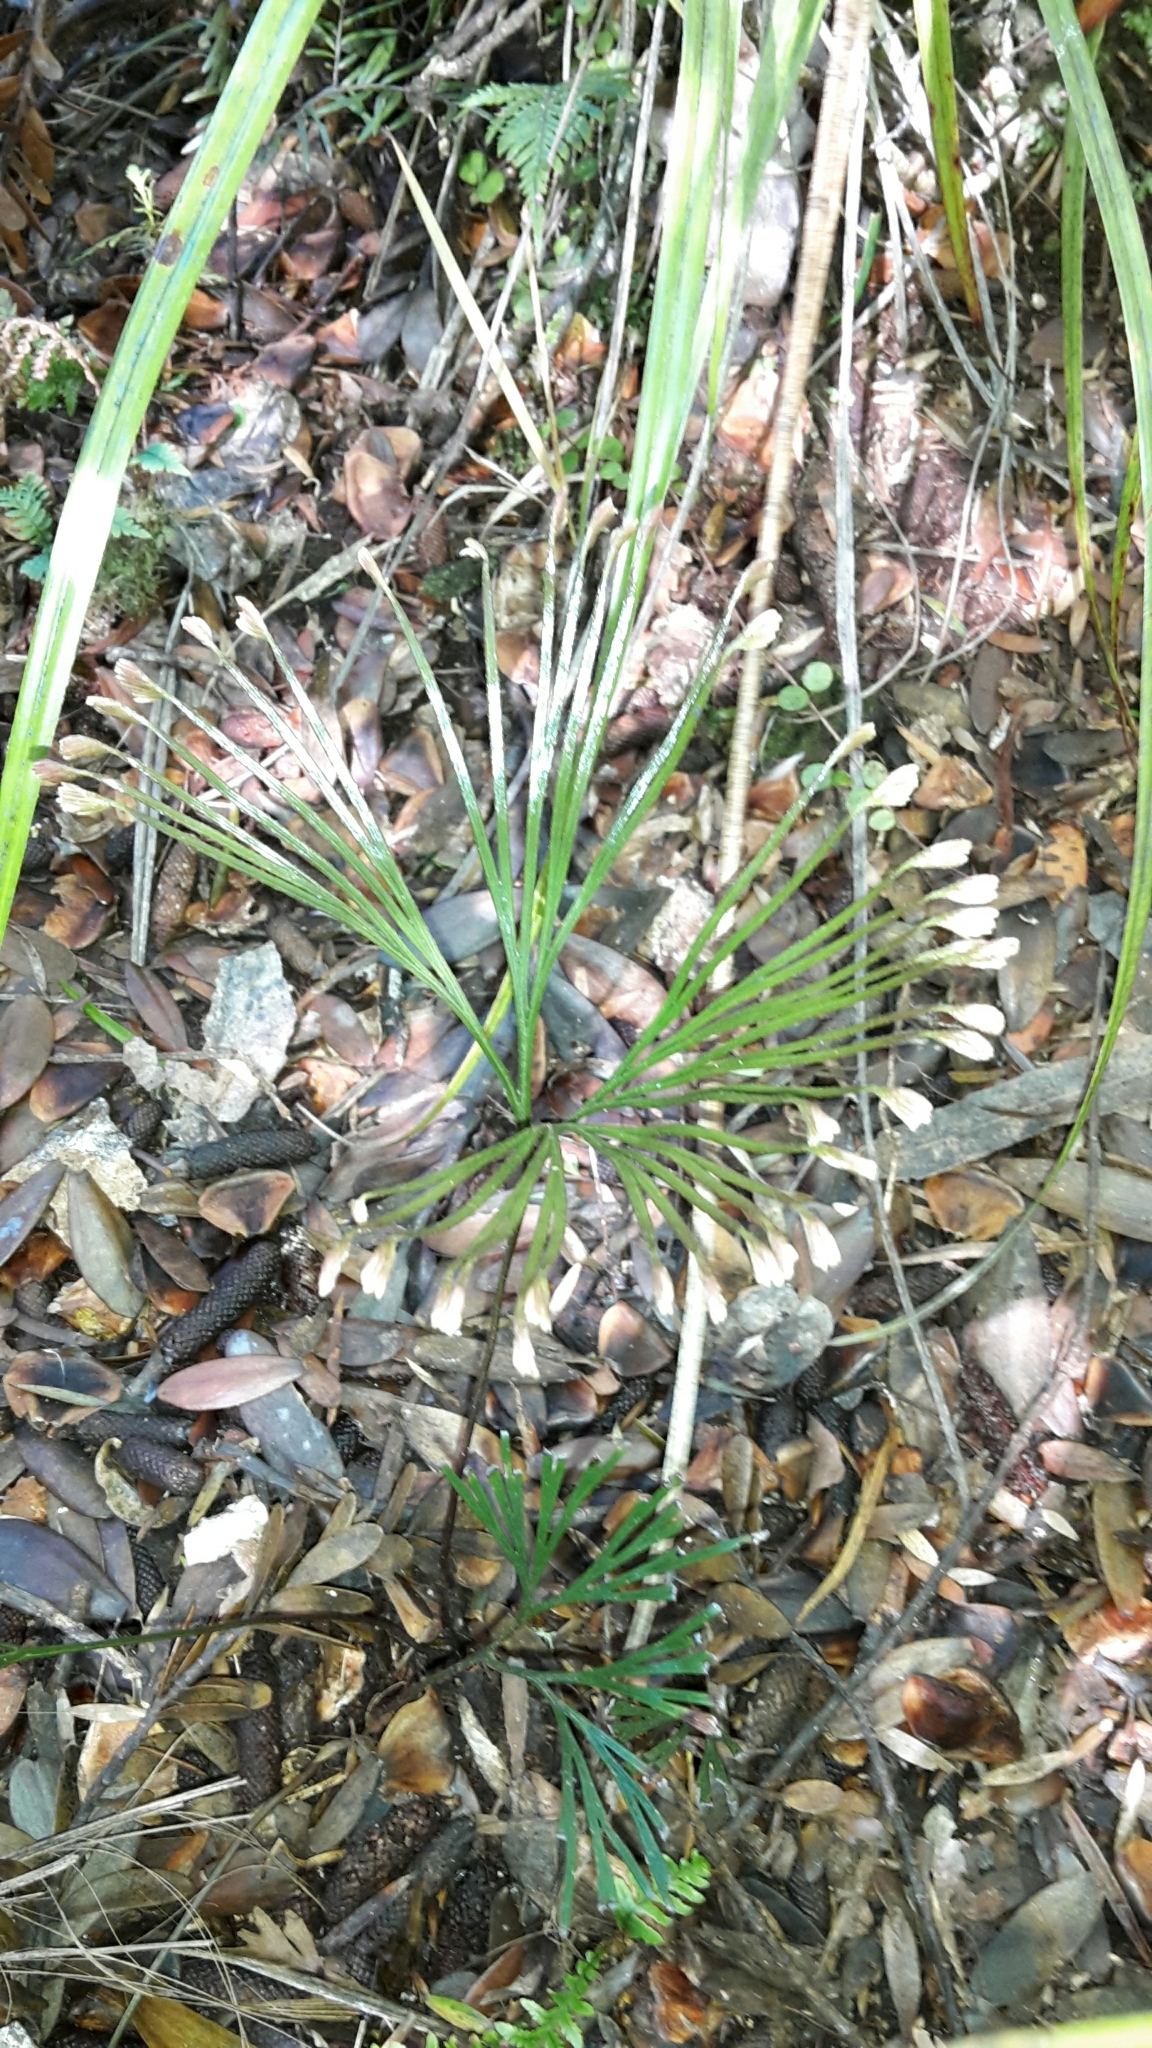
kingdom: Plantae
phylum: Tracheophyta
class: Polypodiopsida
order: Schizaeales
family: Schizaeaceae
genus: Schizaea
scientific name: Schizaea dichotoma
